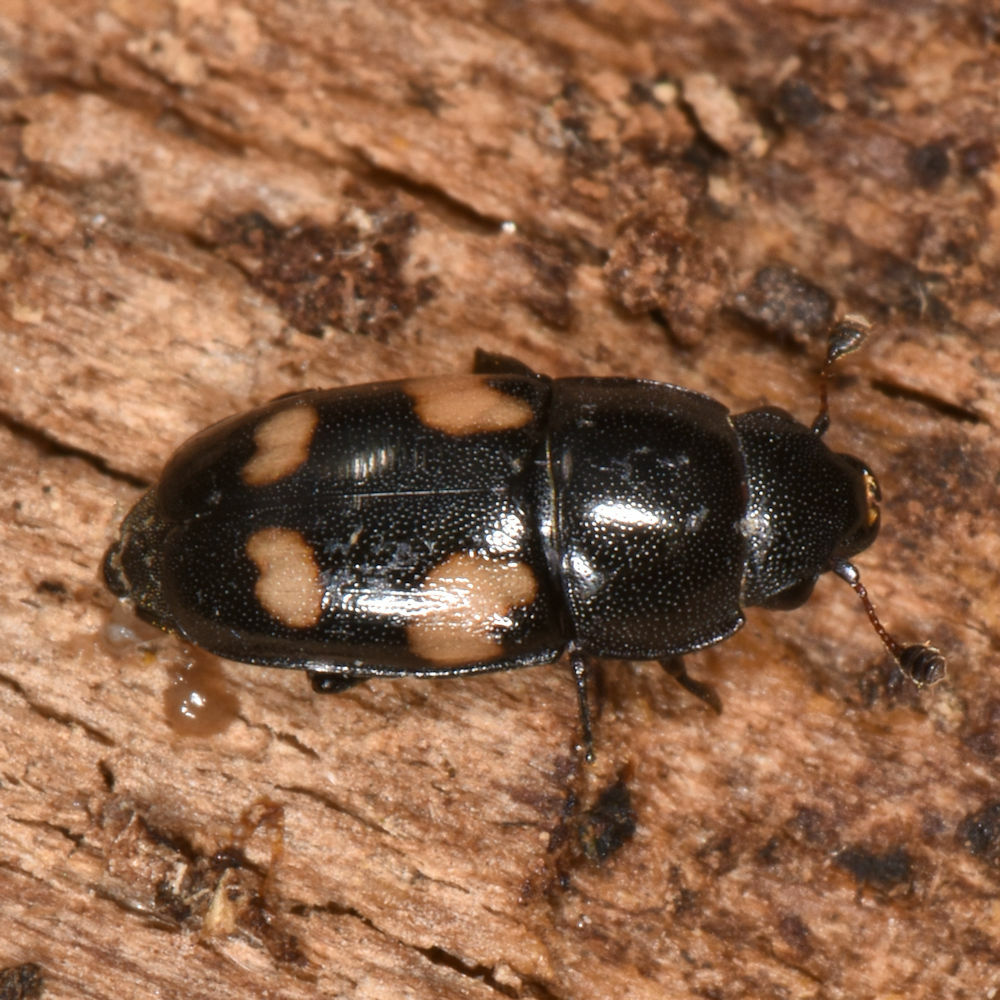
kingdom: Animalia
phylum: Arthropoda
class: Insecta
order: Coleoptera
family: Nitidulidae
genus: Glischrochilus
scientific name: Glischrochilus quadrisignatus
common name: Picnic beetle
